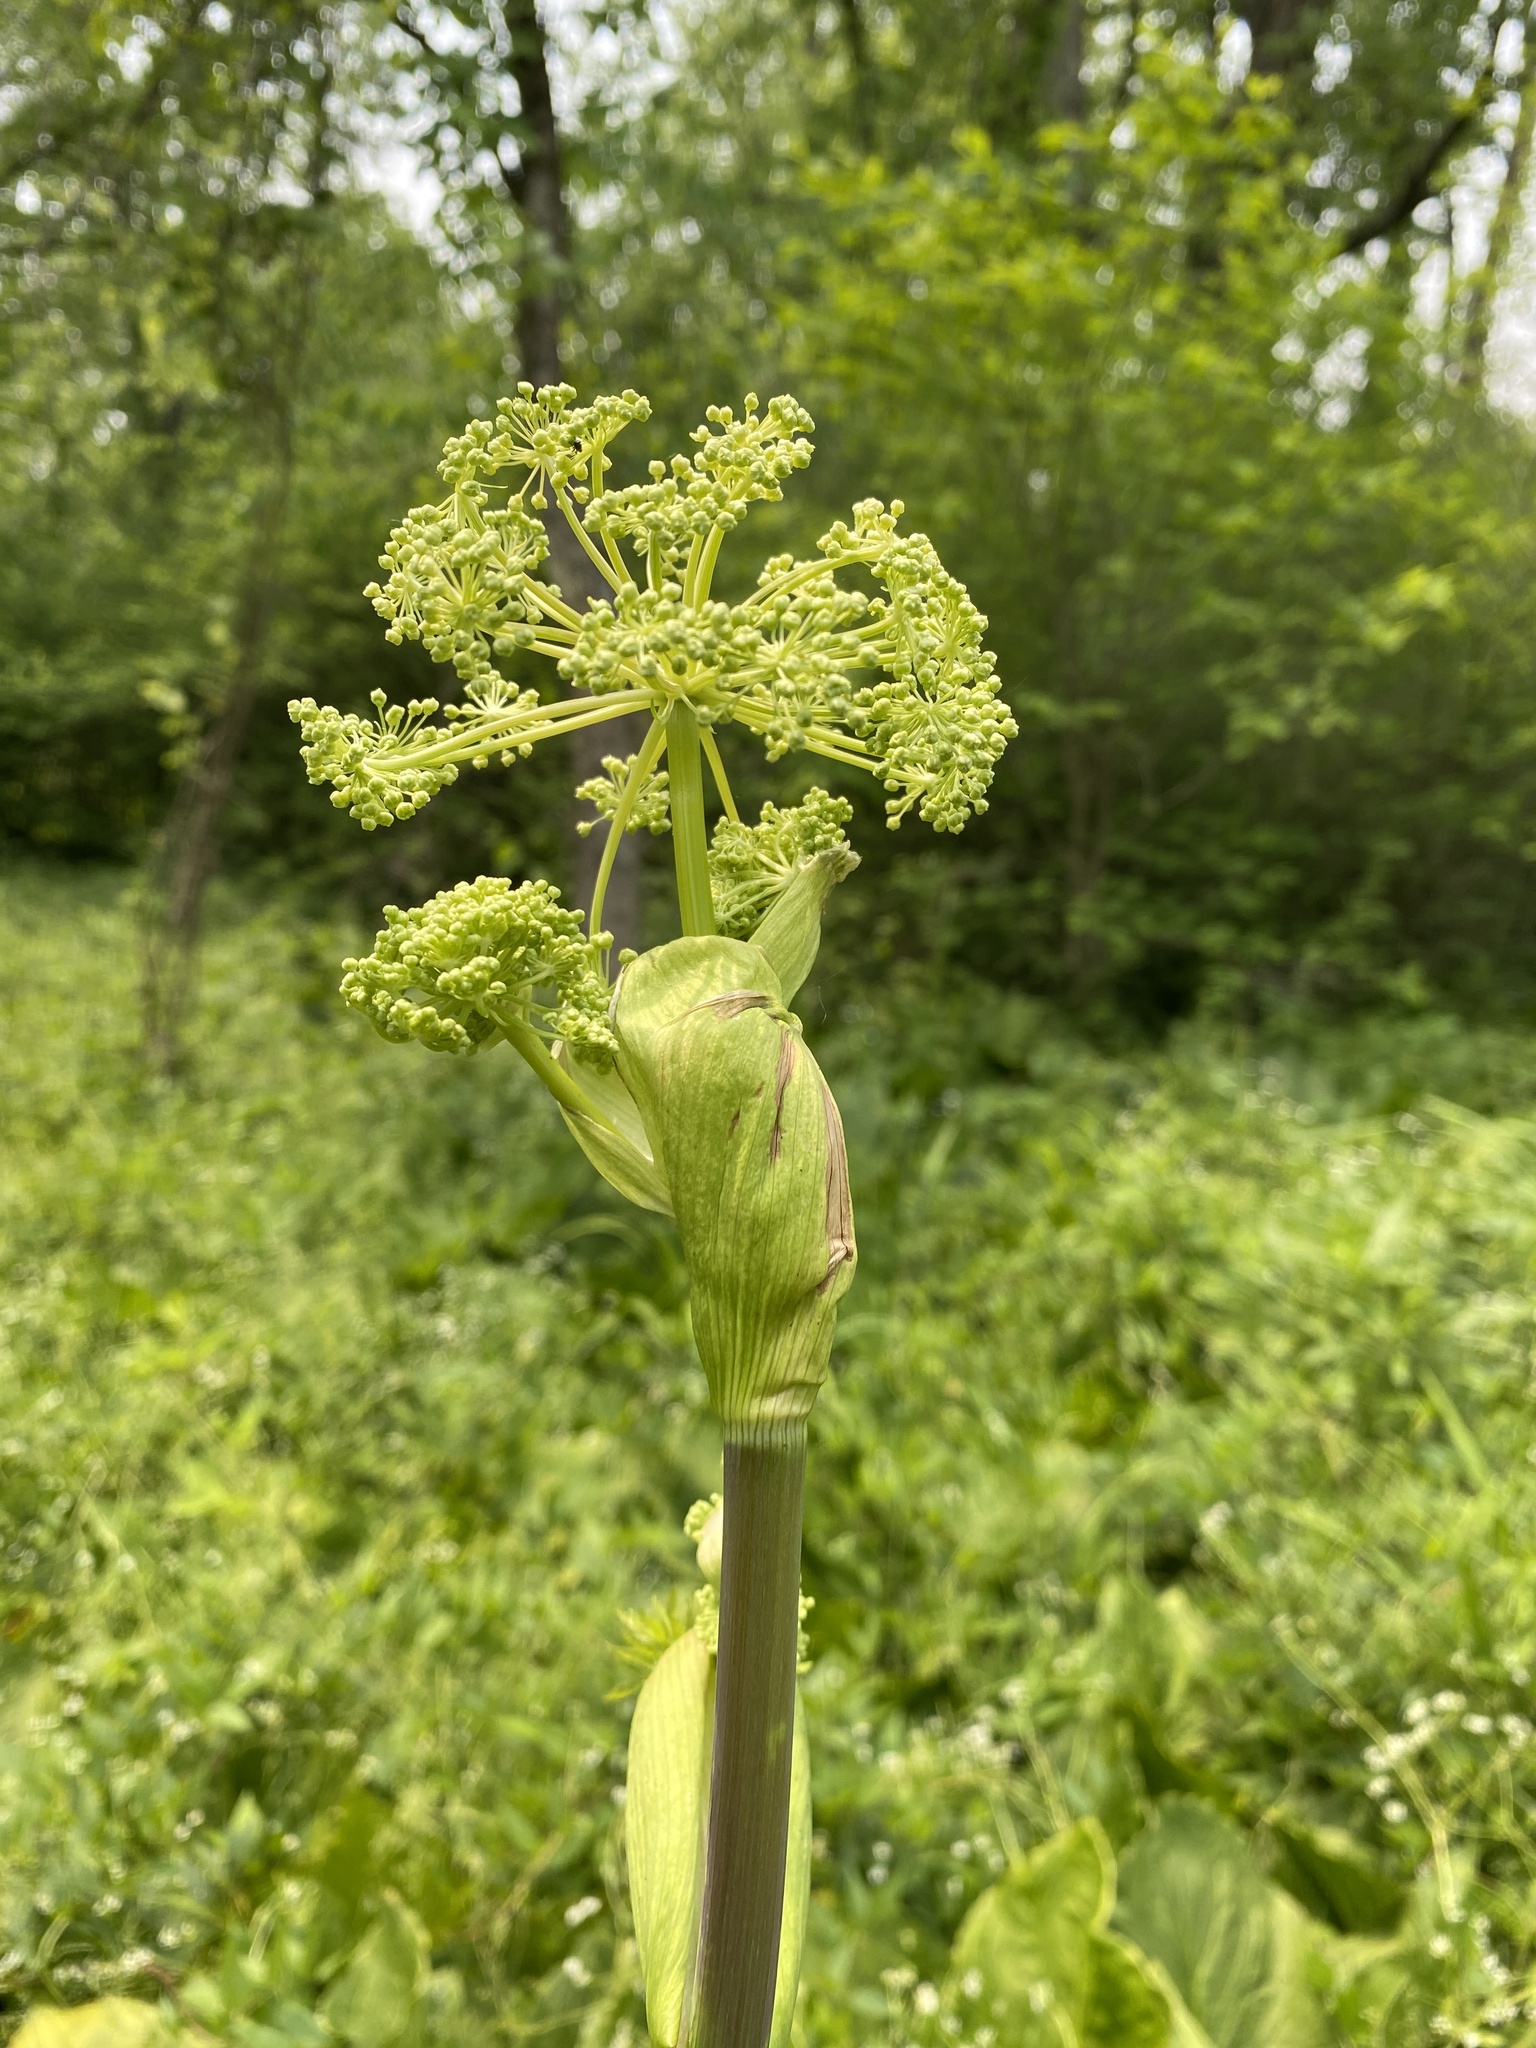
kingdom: Plantae
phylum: Tracheophyta
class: Magnoliopsida
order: Apiales
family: Apiaceae
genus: Angelica
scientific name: Angelica atropurpurea
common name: Great angelica
